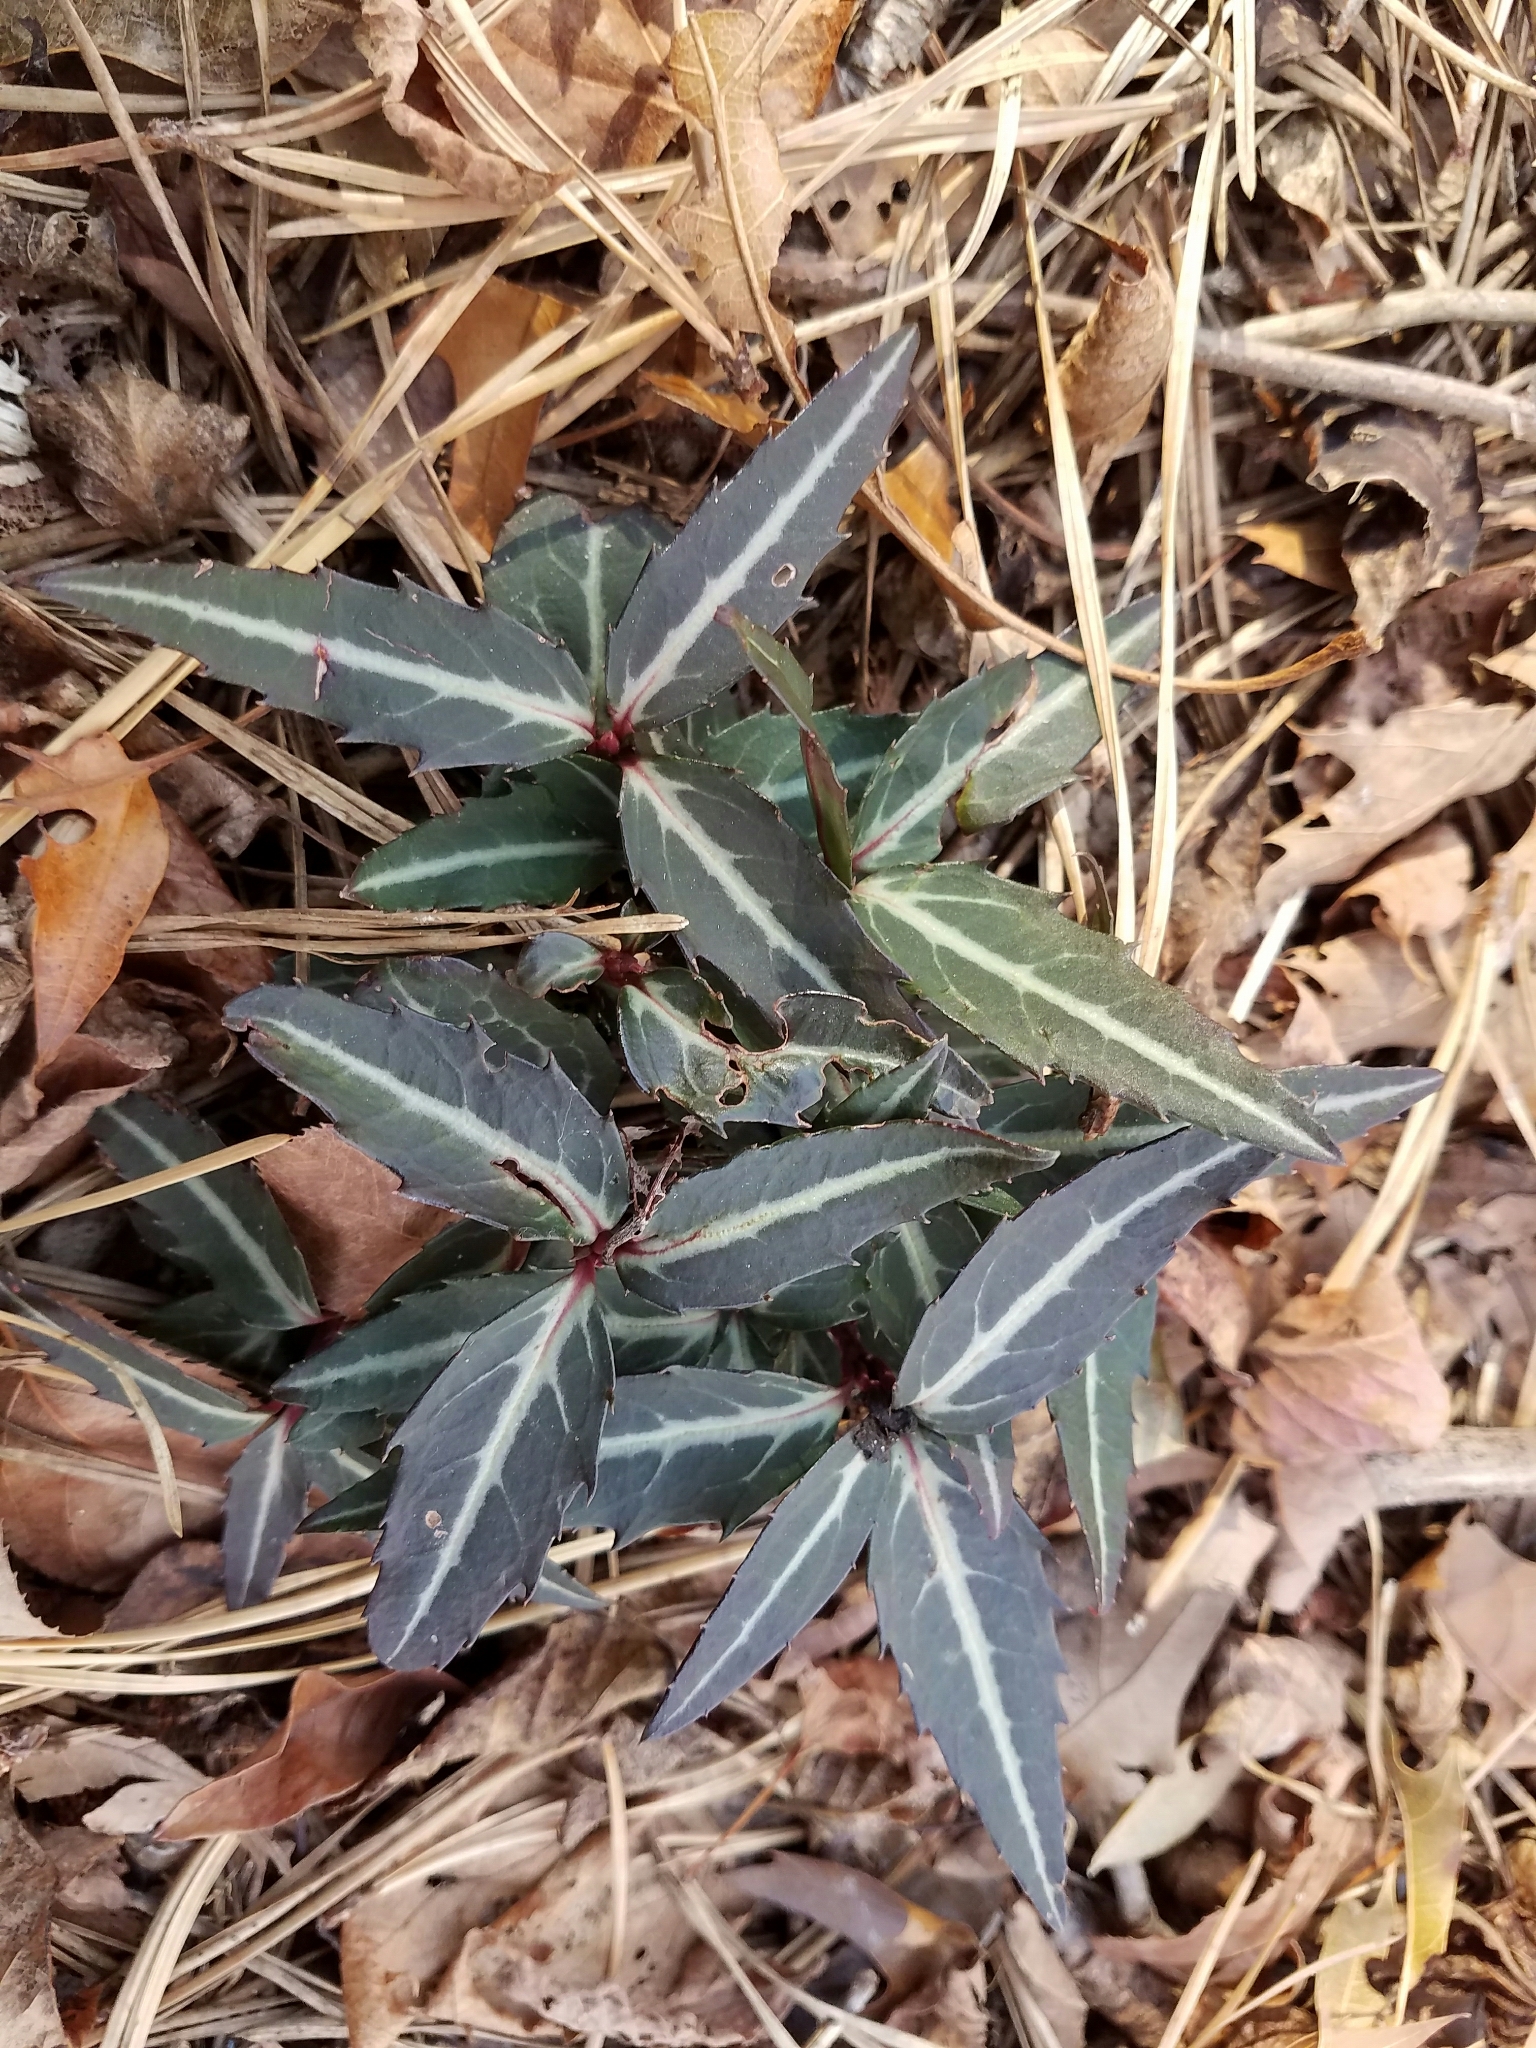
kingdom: Plantae
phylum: Tracheophyta
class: Magnoliopsida
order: Ericales
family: Ericaceae
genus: Chimaphila
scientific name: Chimaphila maculata
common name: Spotted pipsissewa
